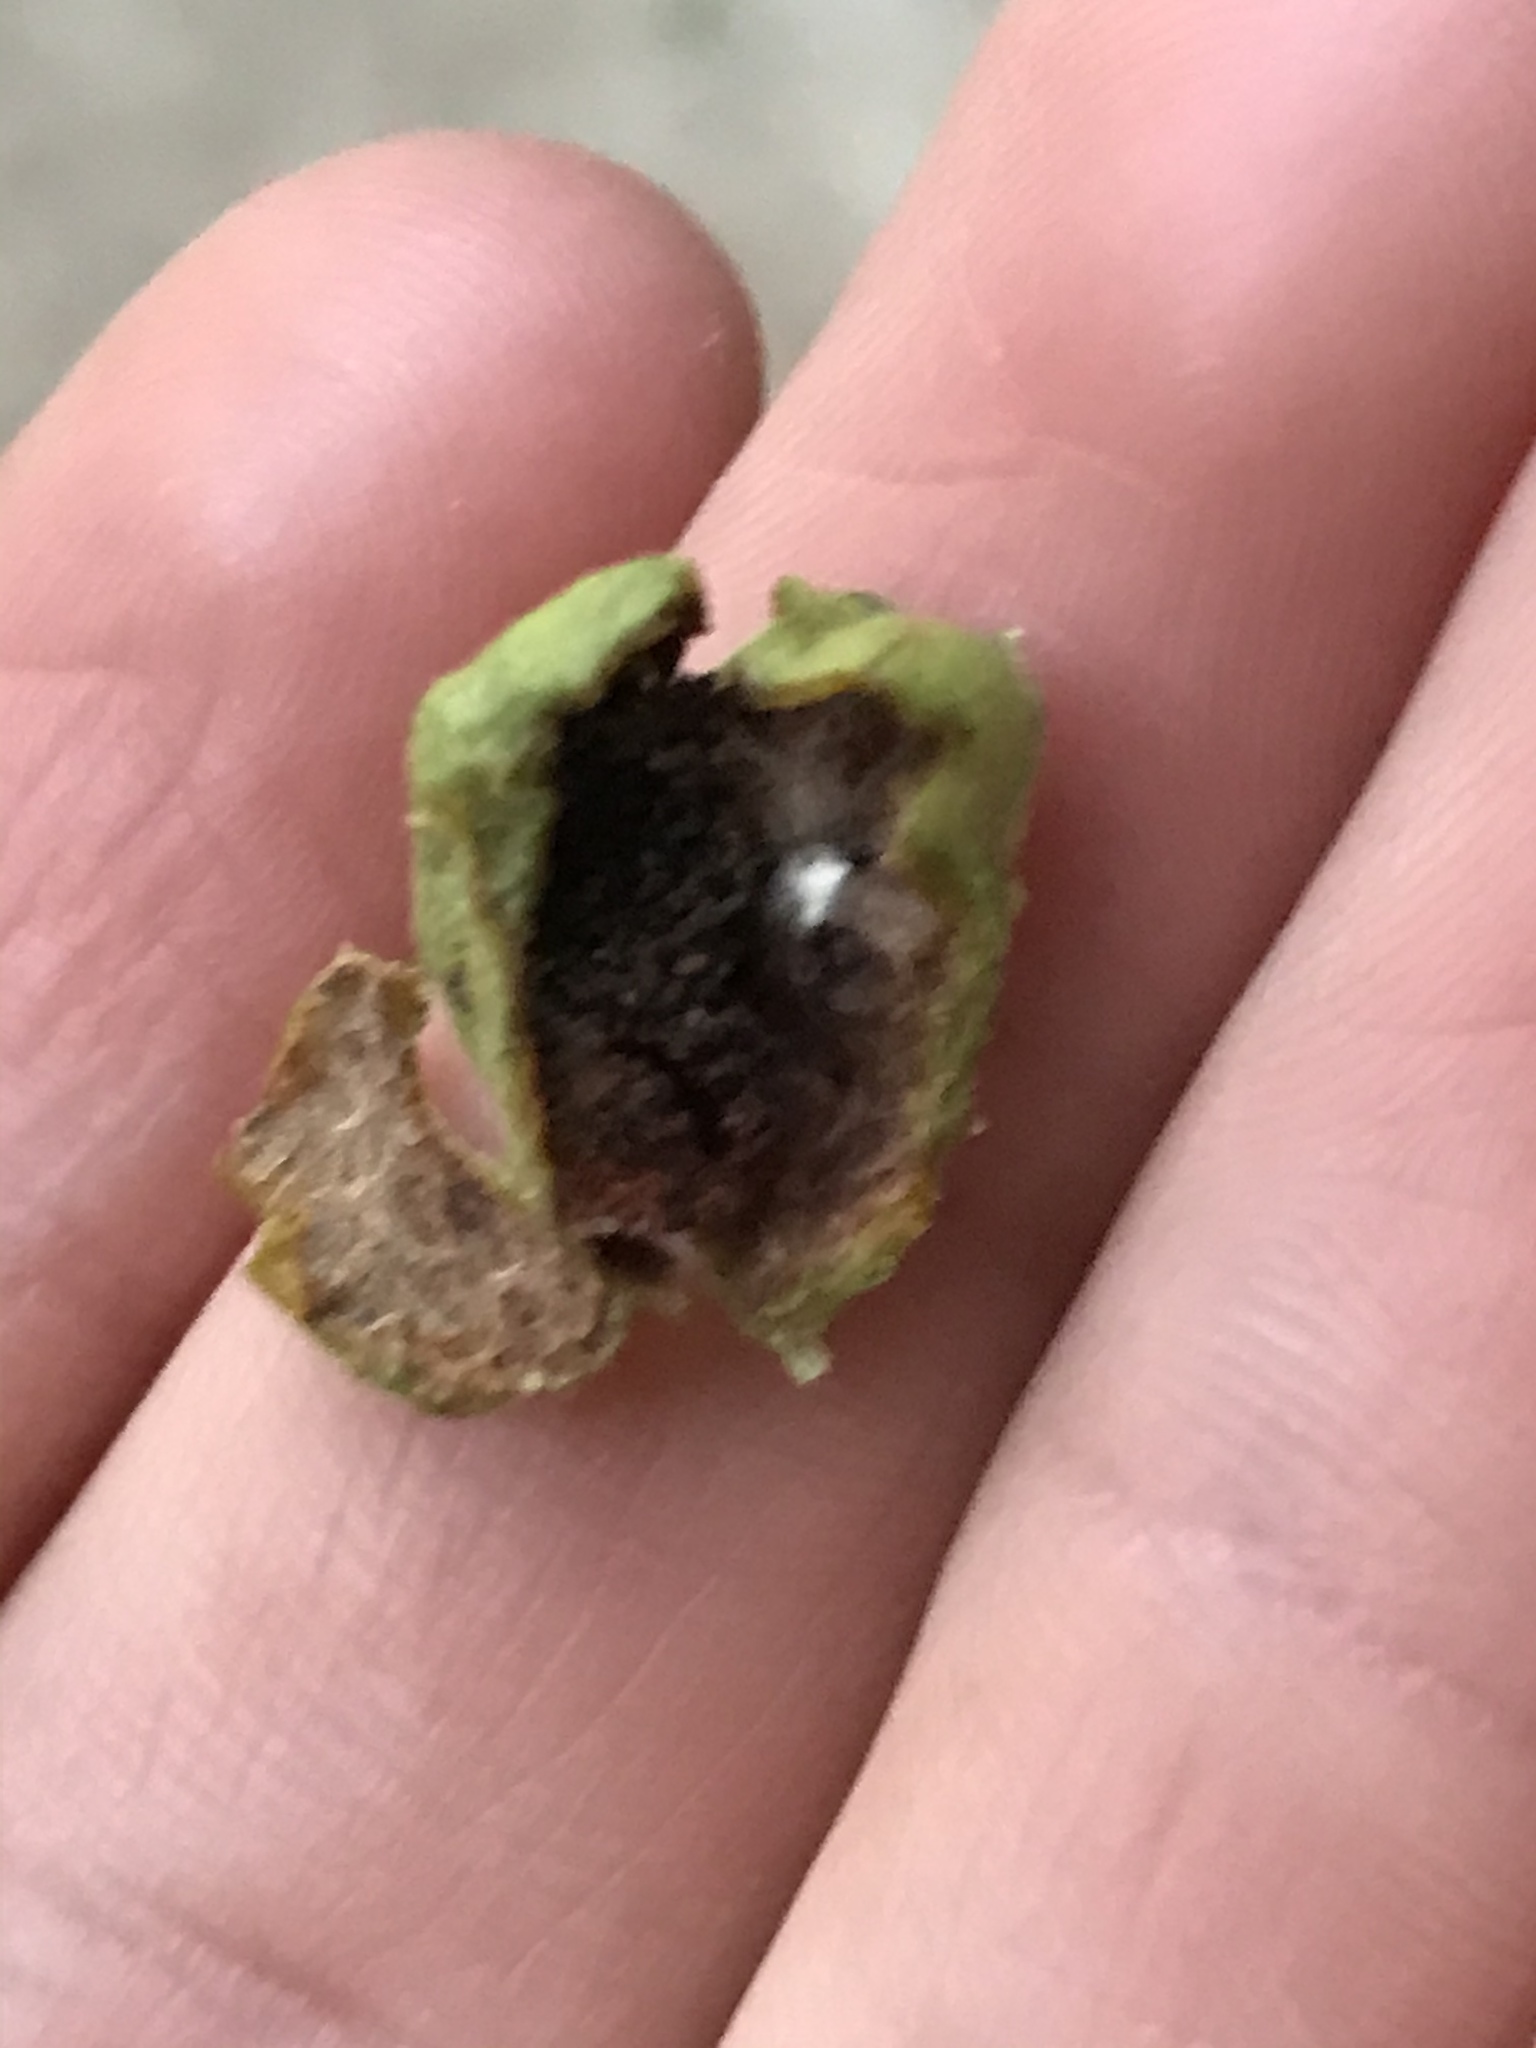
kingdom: Animalia
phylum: Arthropoda
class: Insecta
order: Hemiptera
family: Phylloxeridae
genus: Daktulosphaira
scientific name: Daktulosphaira notabilis
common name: Pecan leaf phylloxera
